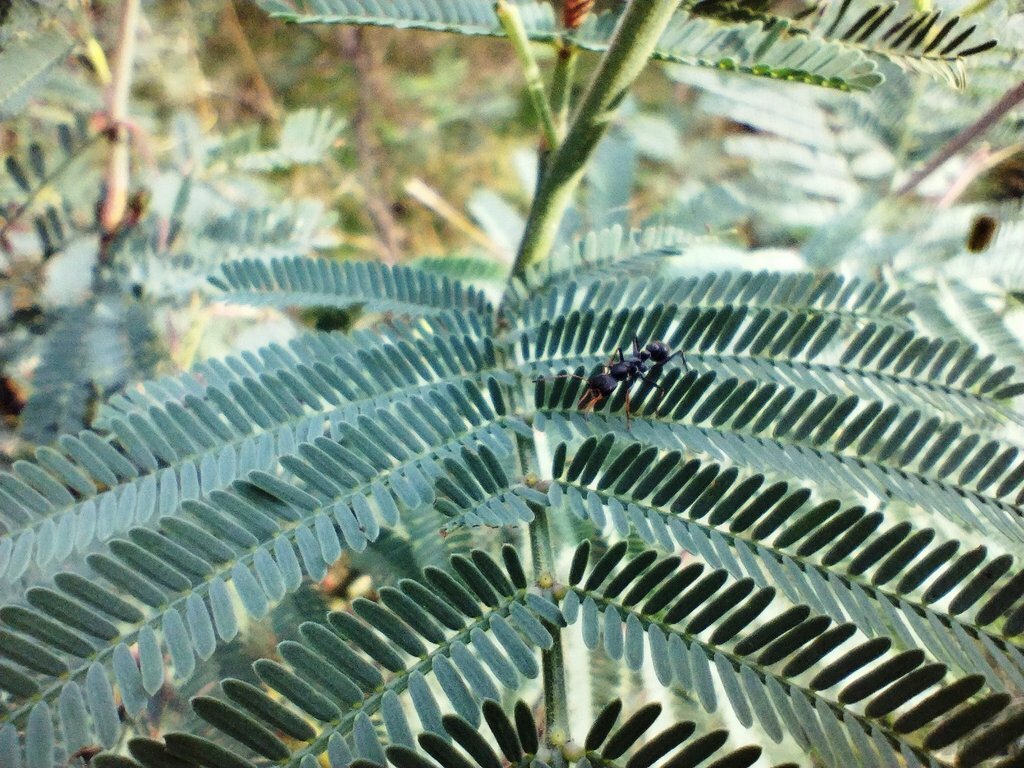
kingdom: Plantae
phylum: Tracheophyta
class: Magnoliopsida
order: Fabales
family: Fabaceae
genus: Acacia
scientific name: Acacia dealbata
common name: Silver wattle
